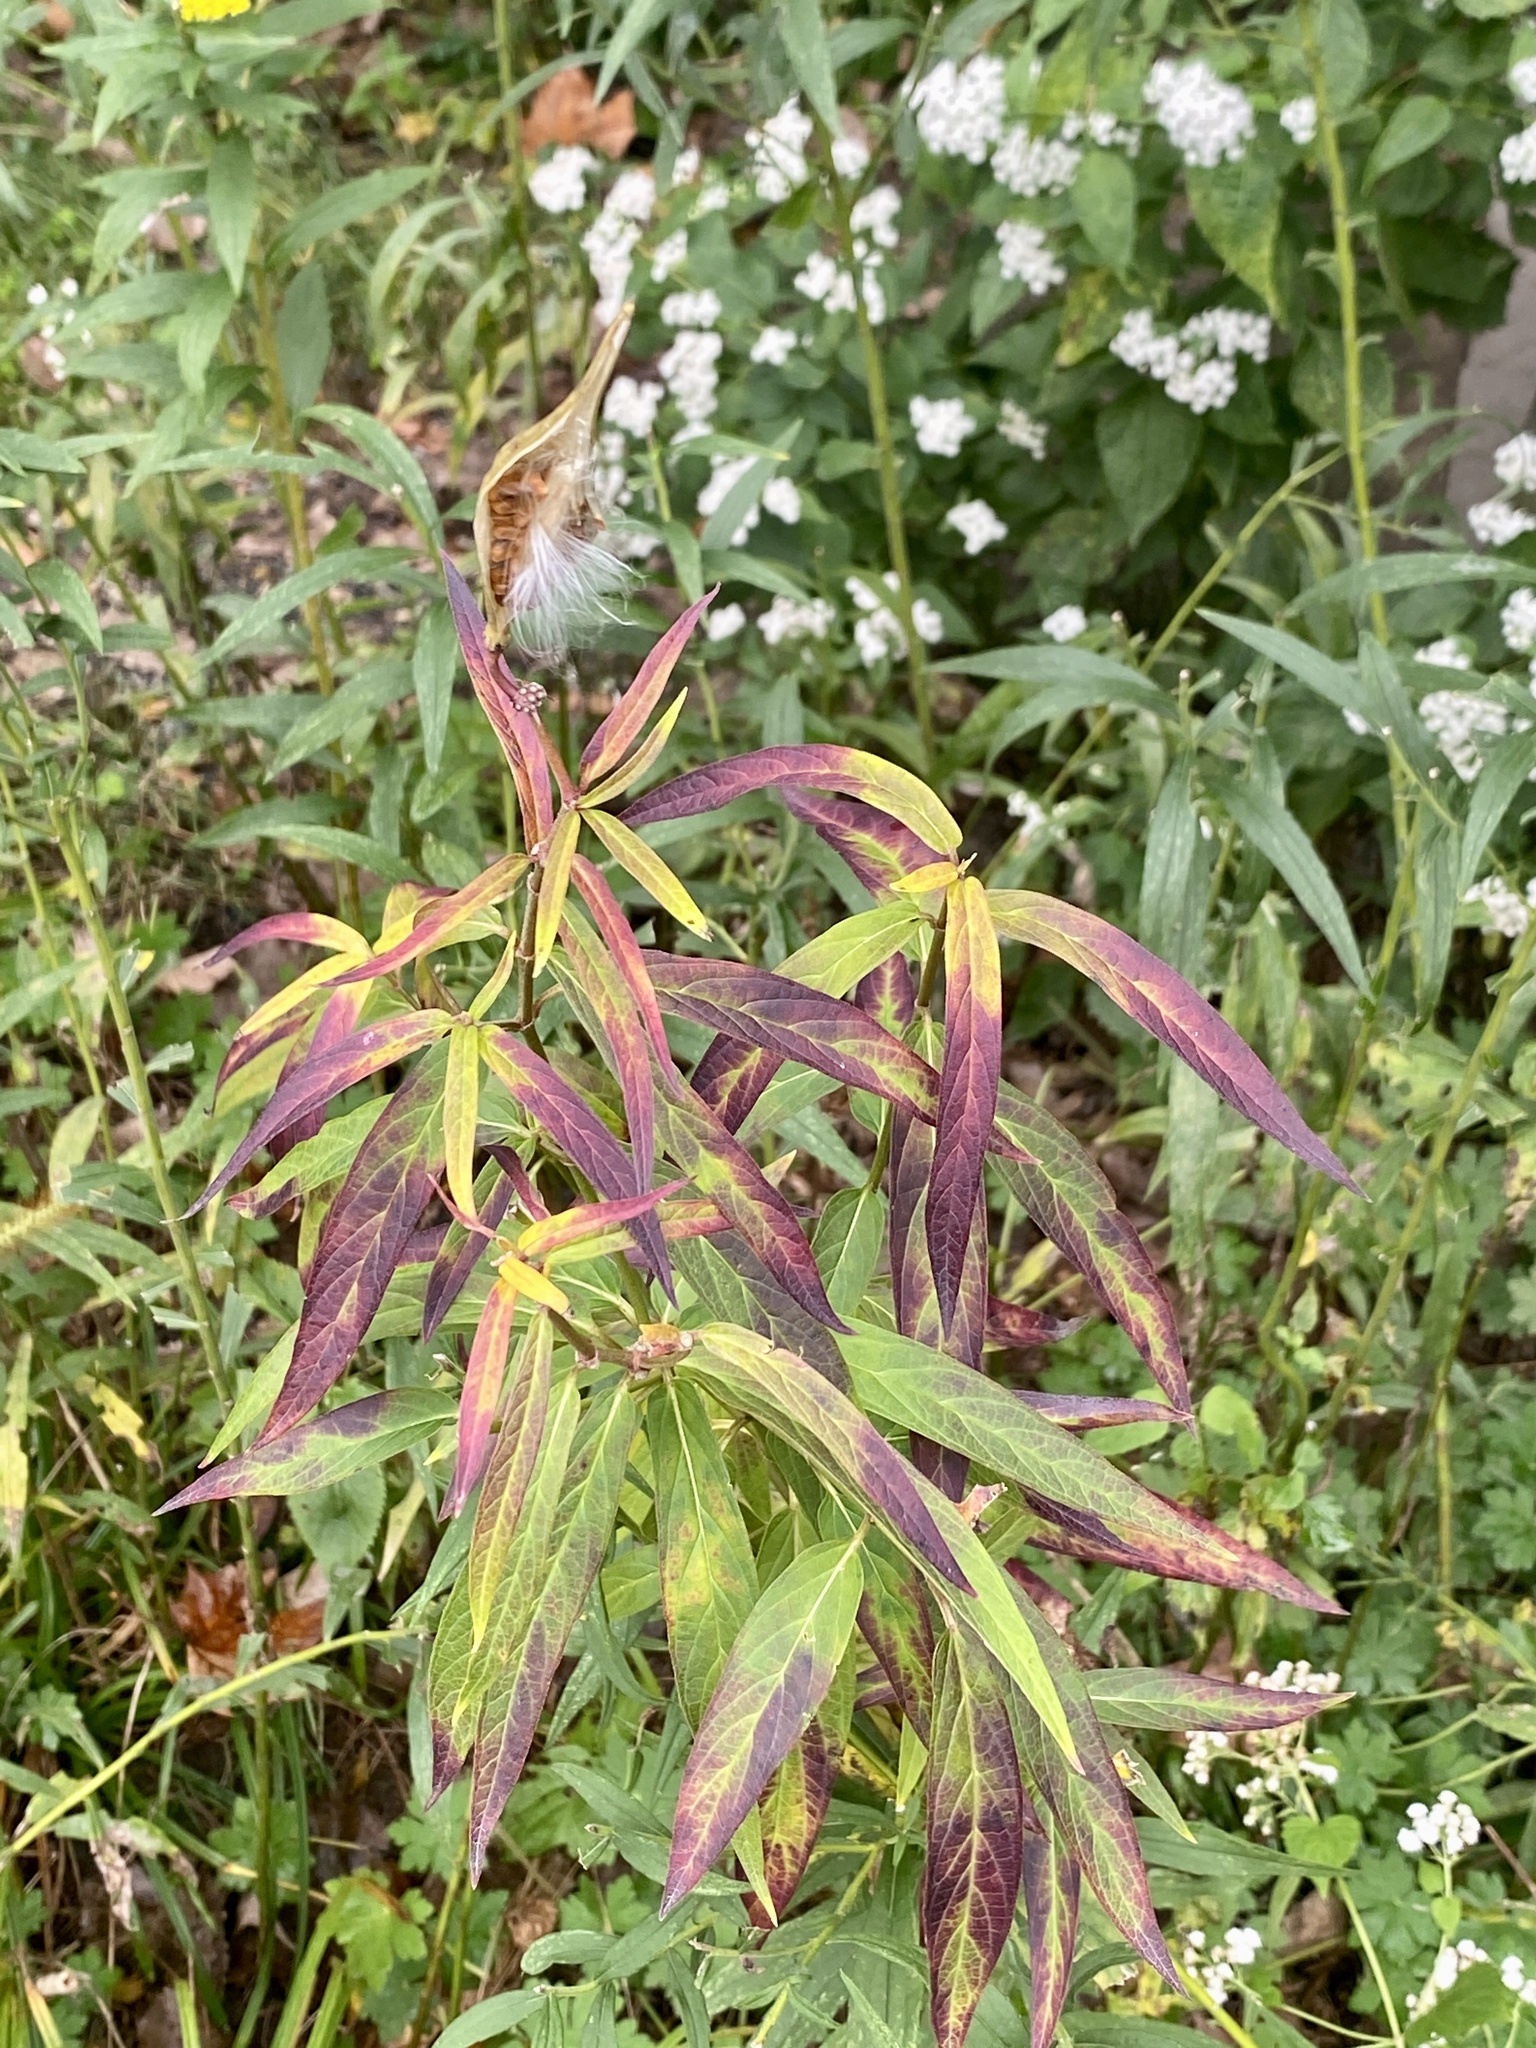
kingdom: Plantae
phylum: Tracheophyta
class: Magnoliopsida
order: Gentianales
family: Apocynaceae
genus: Asclepias
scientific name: Asclepias incarnata
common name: Swamp milkweed
